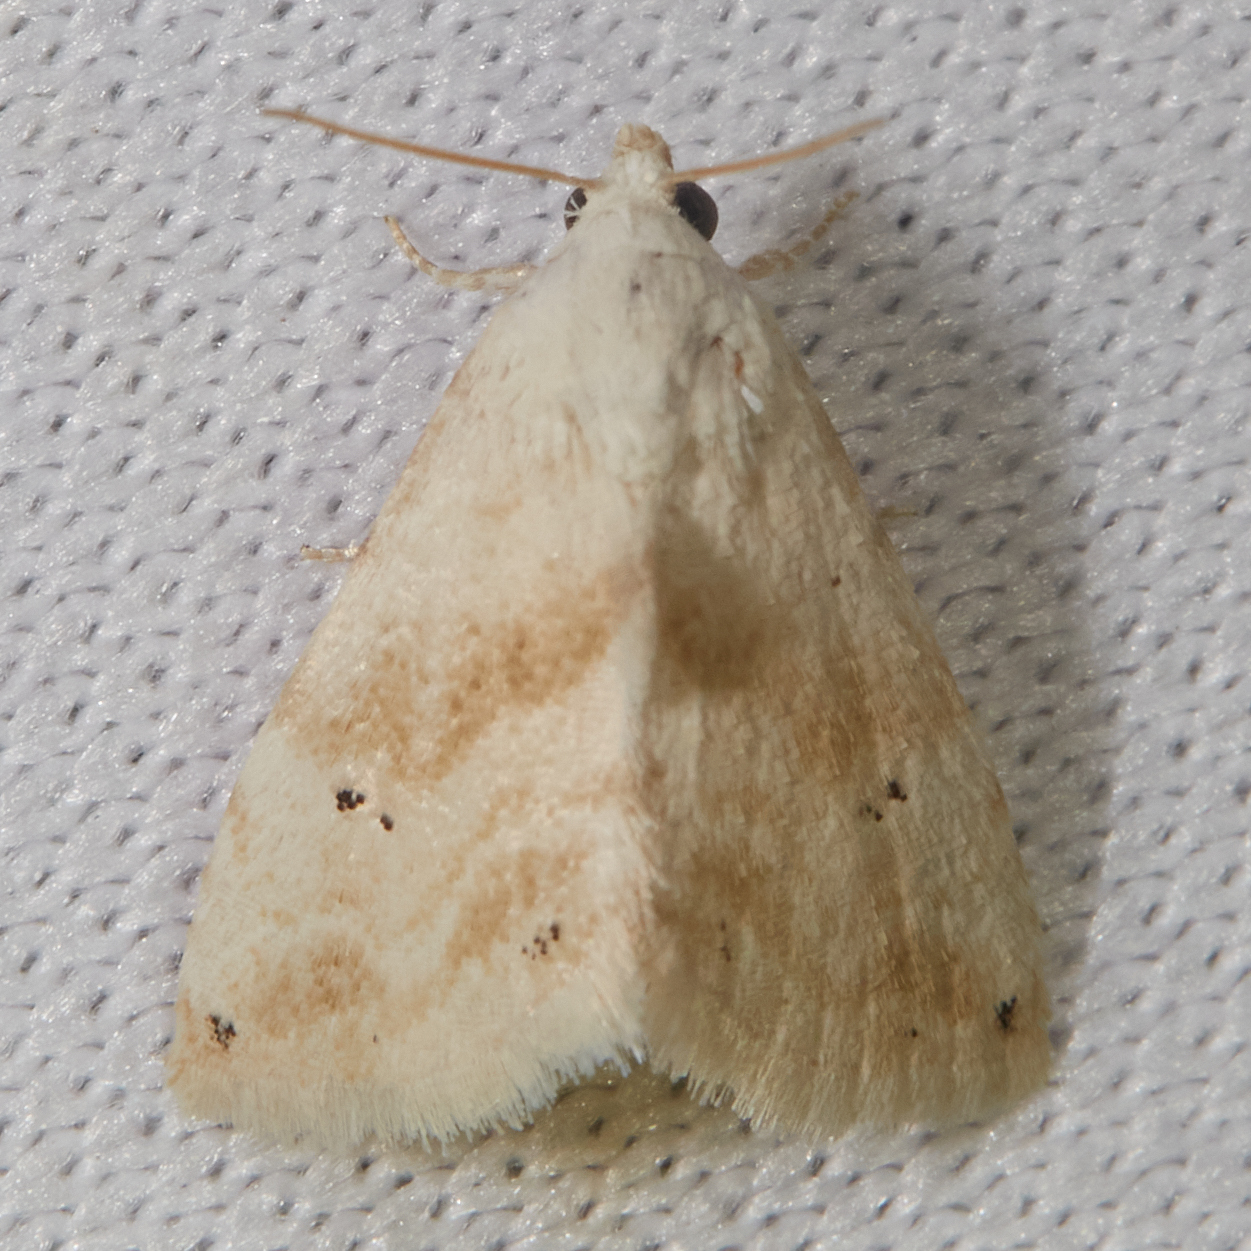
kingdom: Animalia
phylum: Arthropoda
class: Insecta
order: Lepidoptera
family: Noctuidae
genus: Eublemma
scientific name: Eublemma minima
